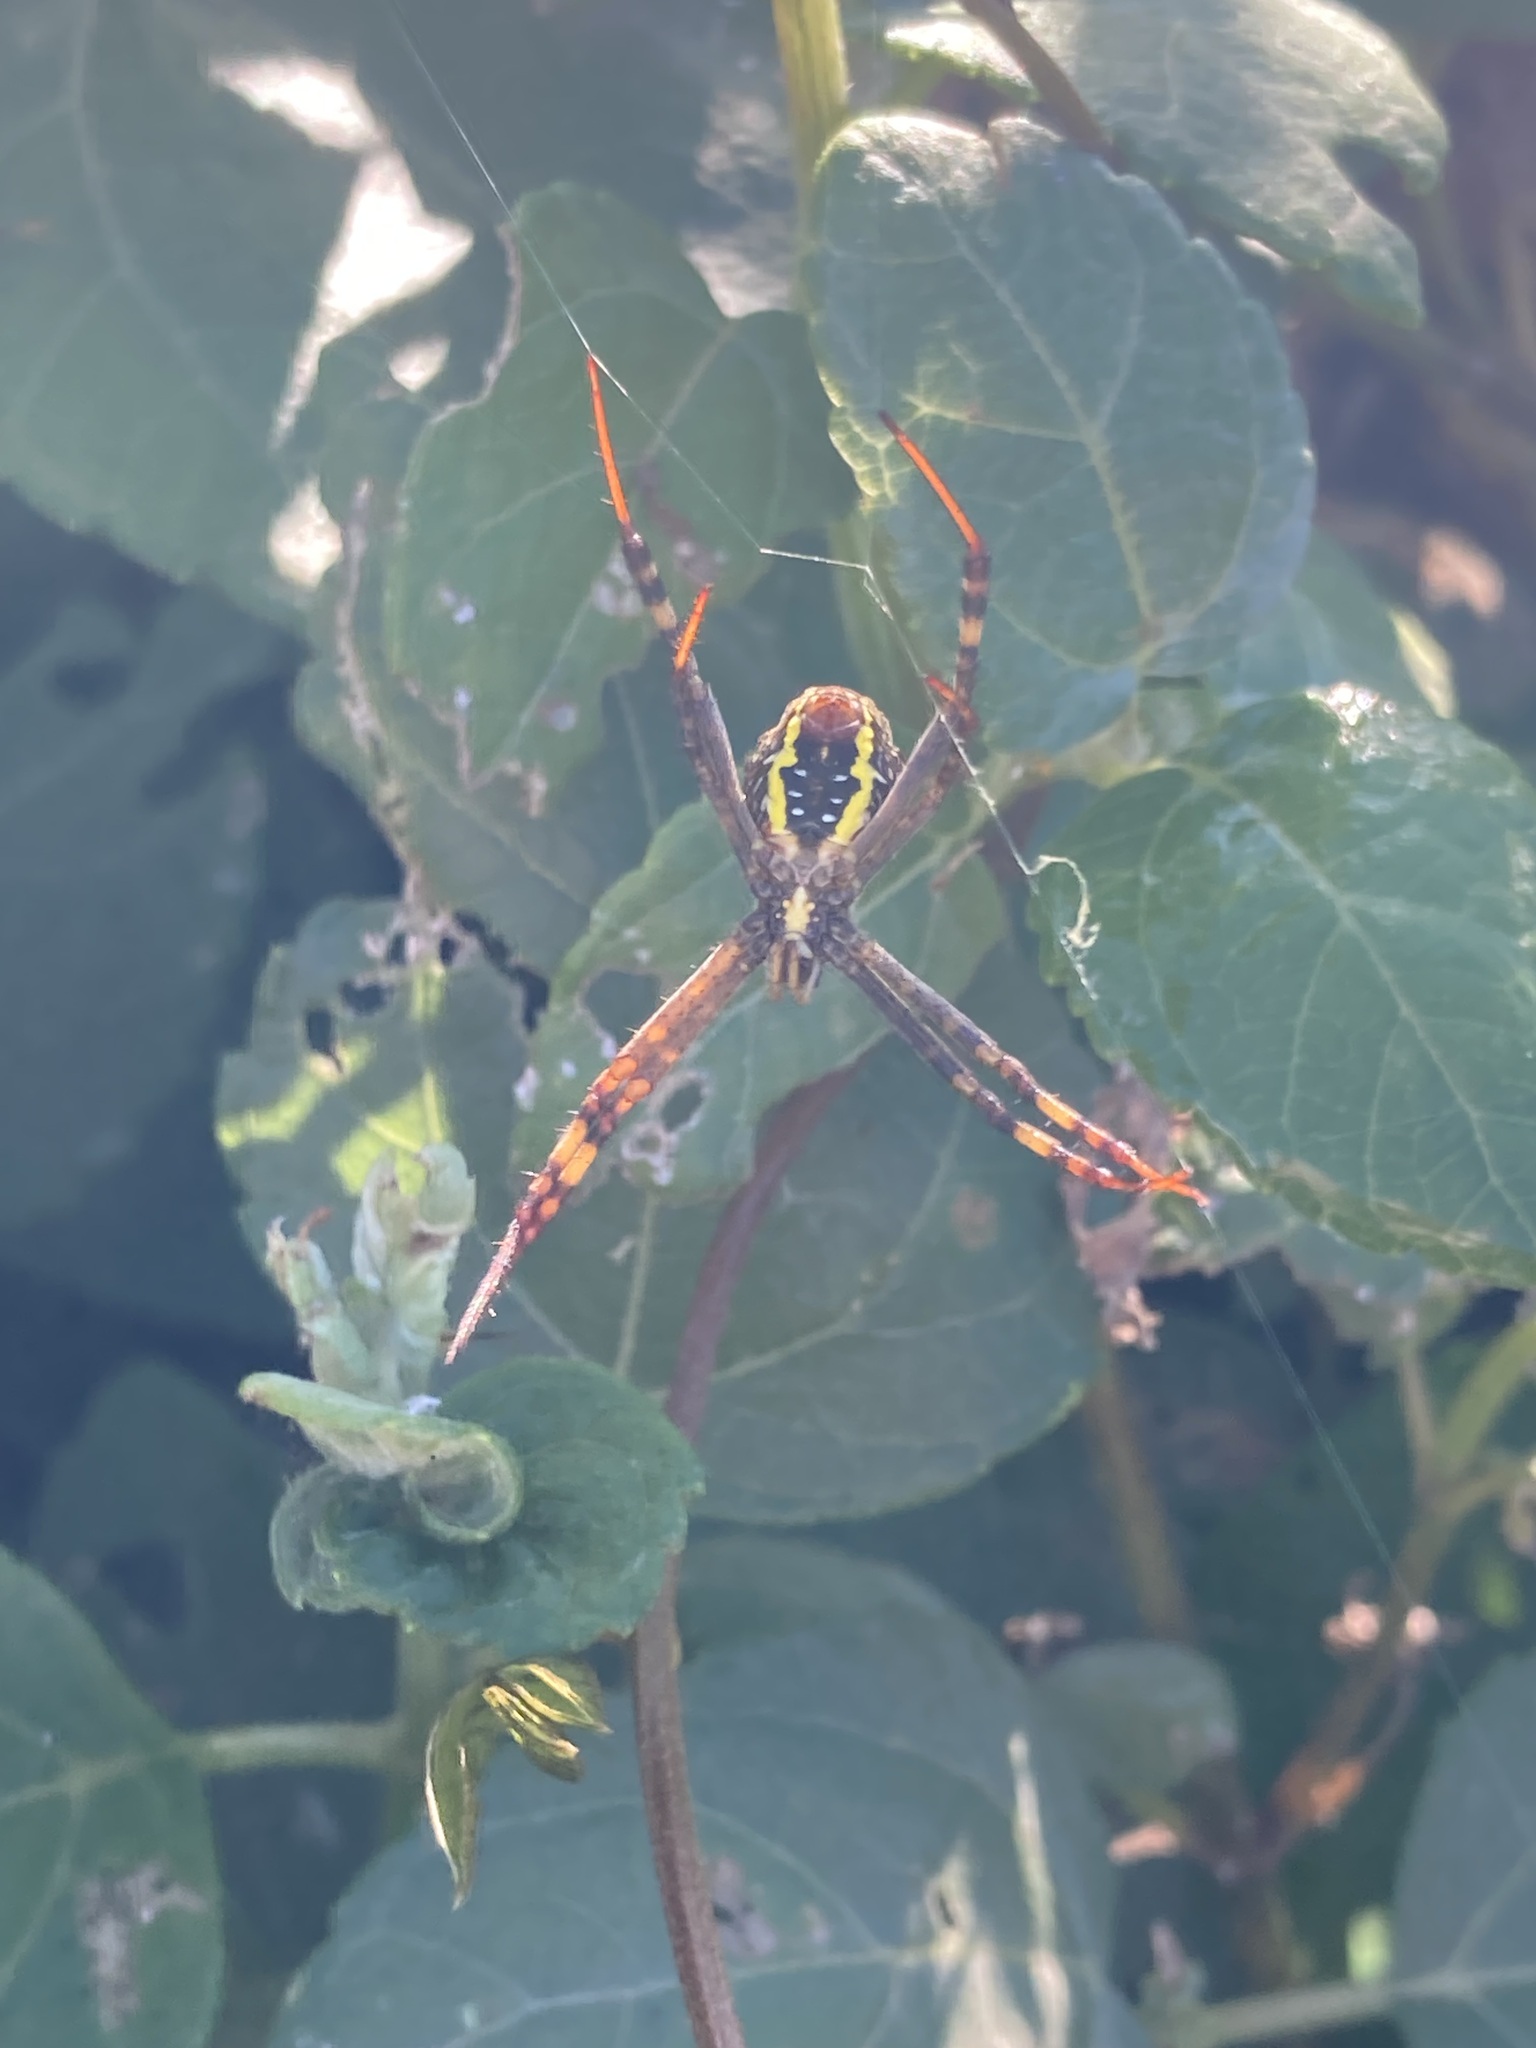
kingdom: Animalia
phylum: Arthropoda
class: Arachnida
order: Araneae
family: Araneidae
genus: Argiope
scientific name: Argiope keyserlingi
